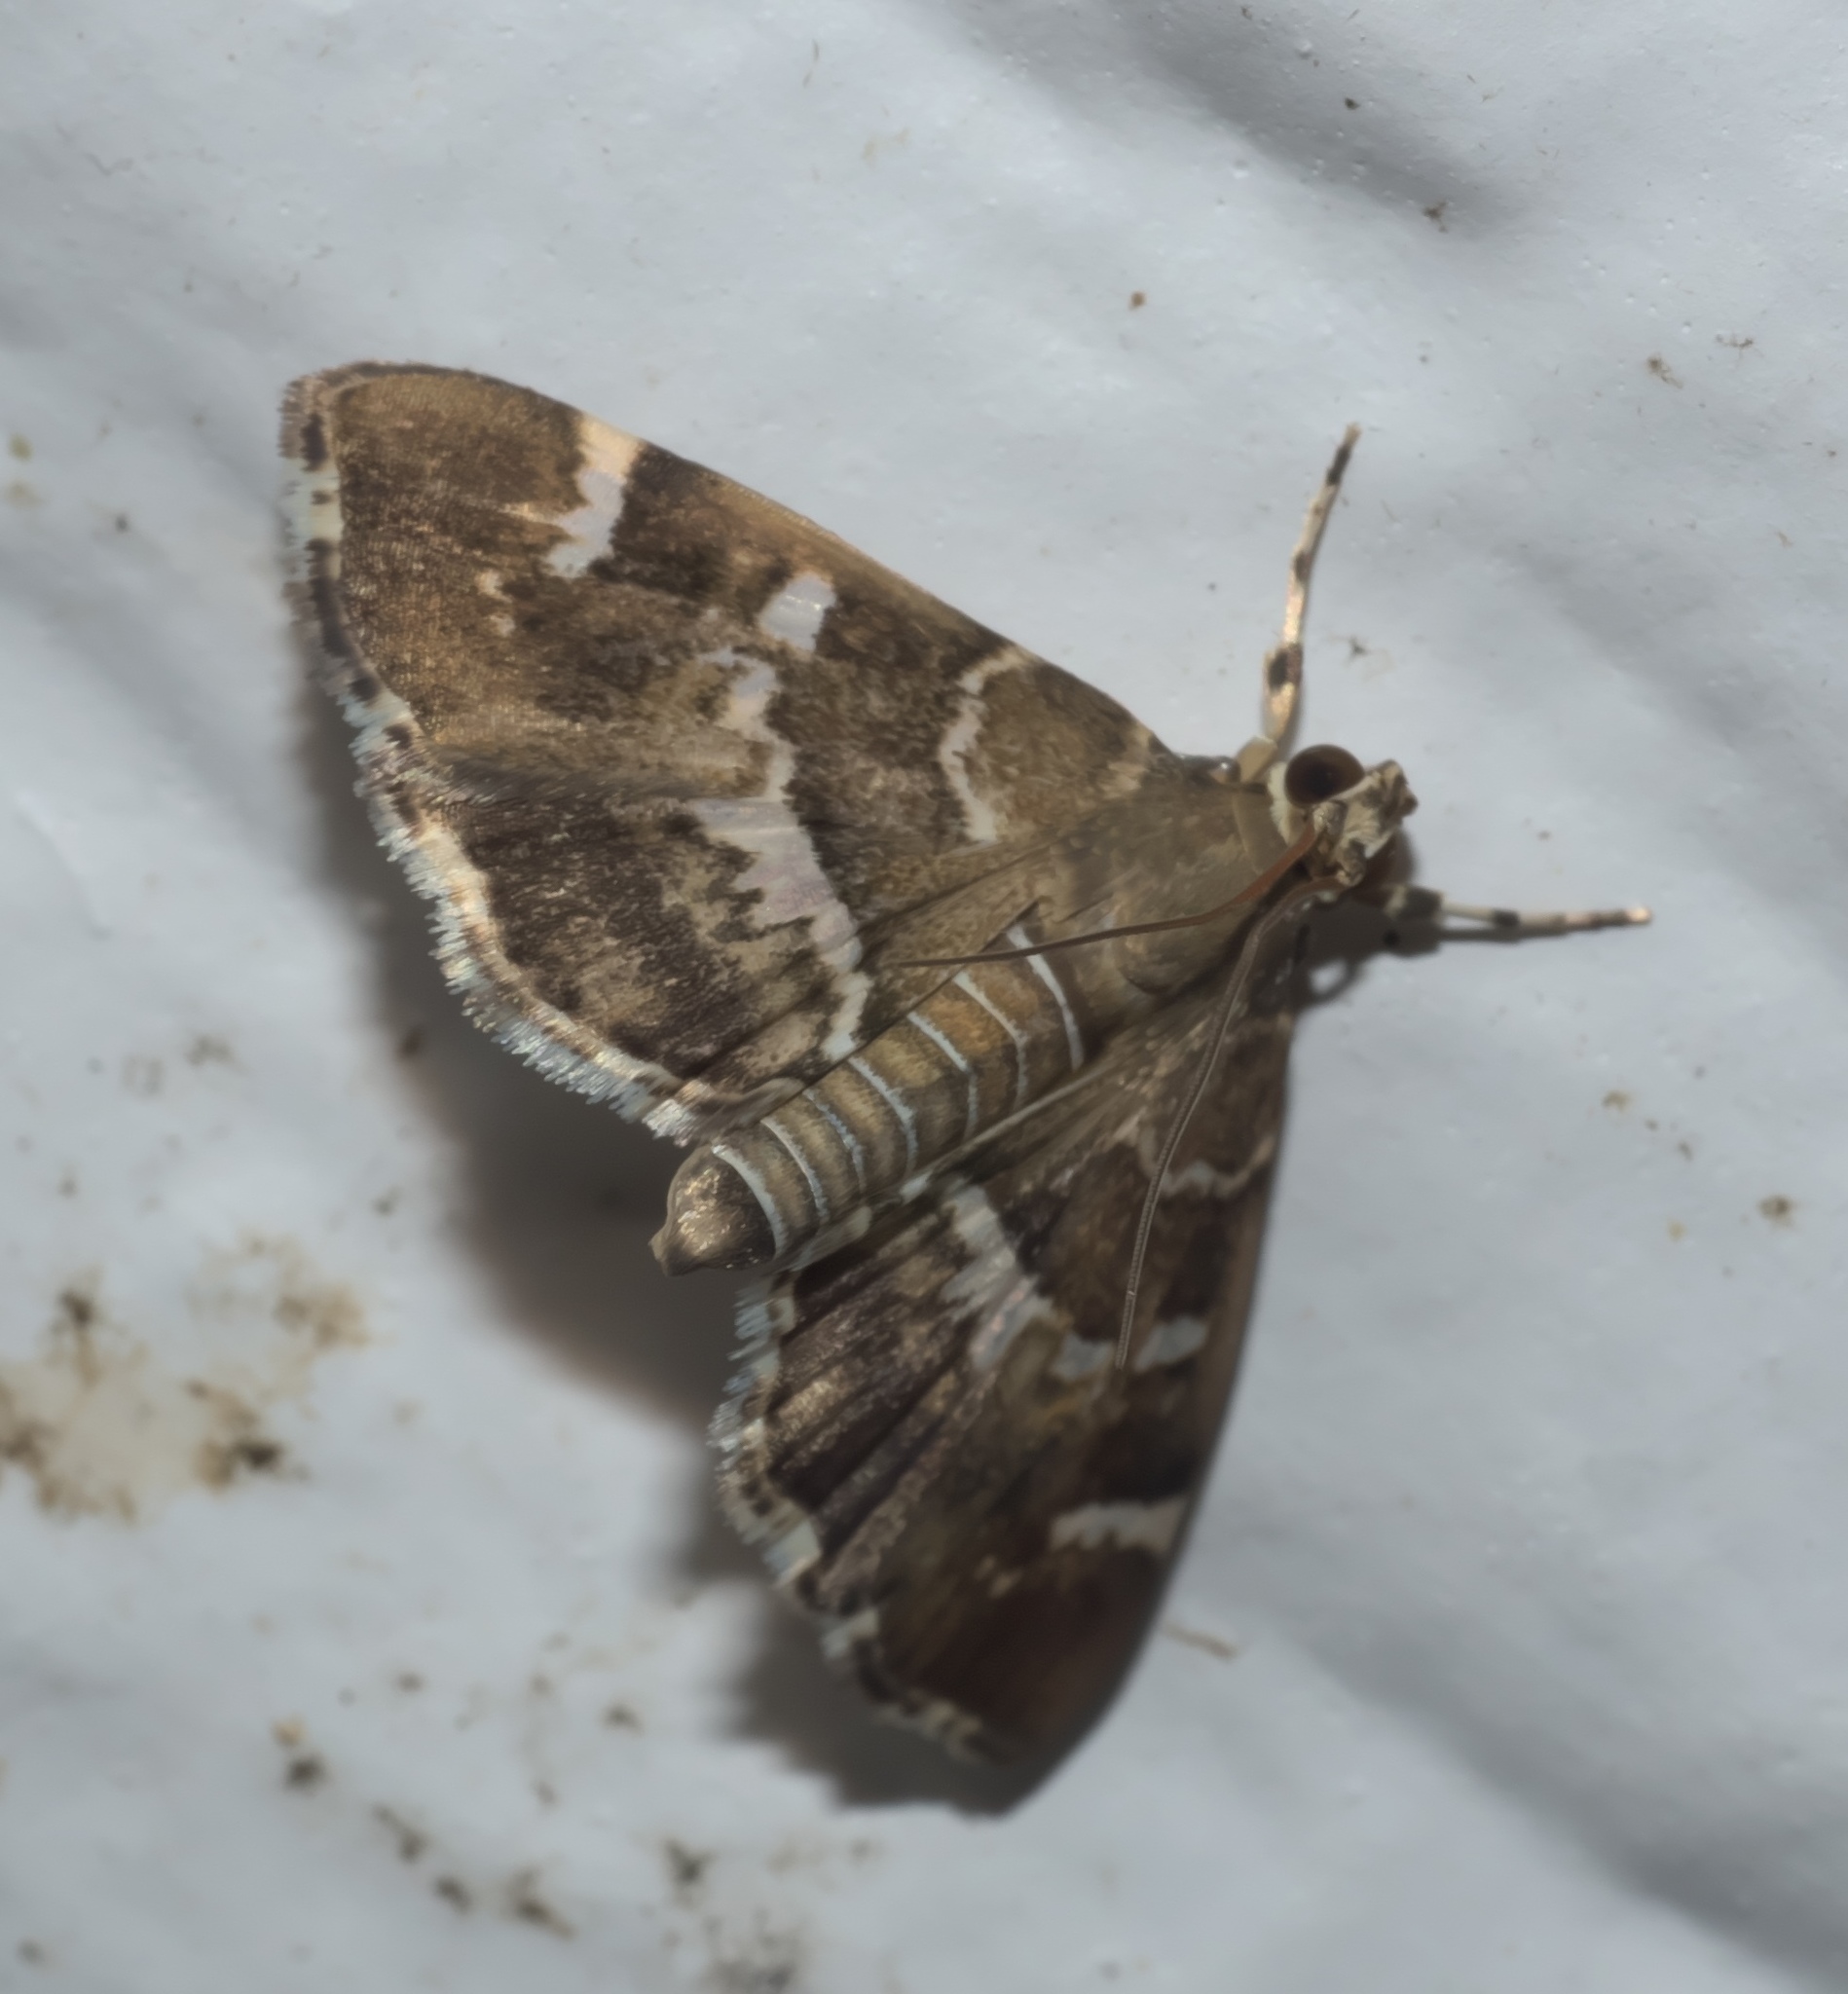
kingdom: Animalia
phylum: Arthropoda
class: Insecta
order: Lepidoptera
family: Crambidae
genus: Hymenia
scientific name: Hymenia perspectalis
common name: Spotted beet webworm
